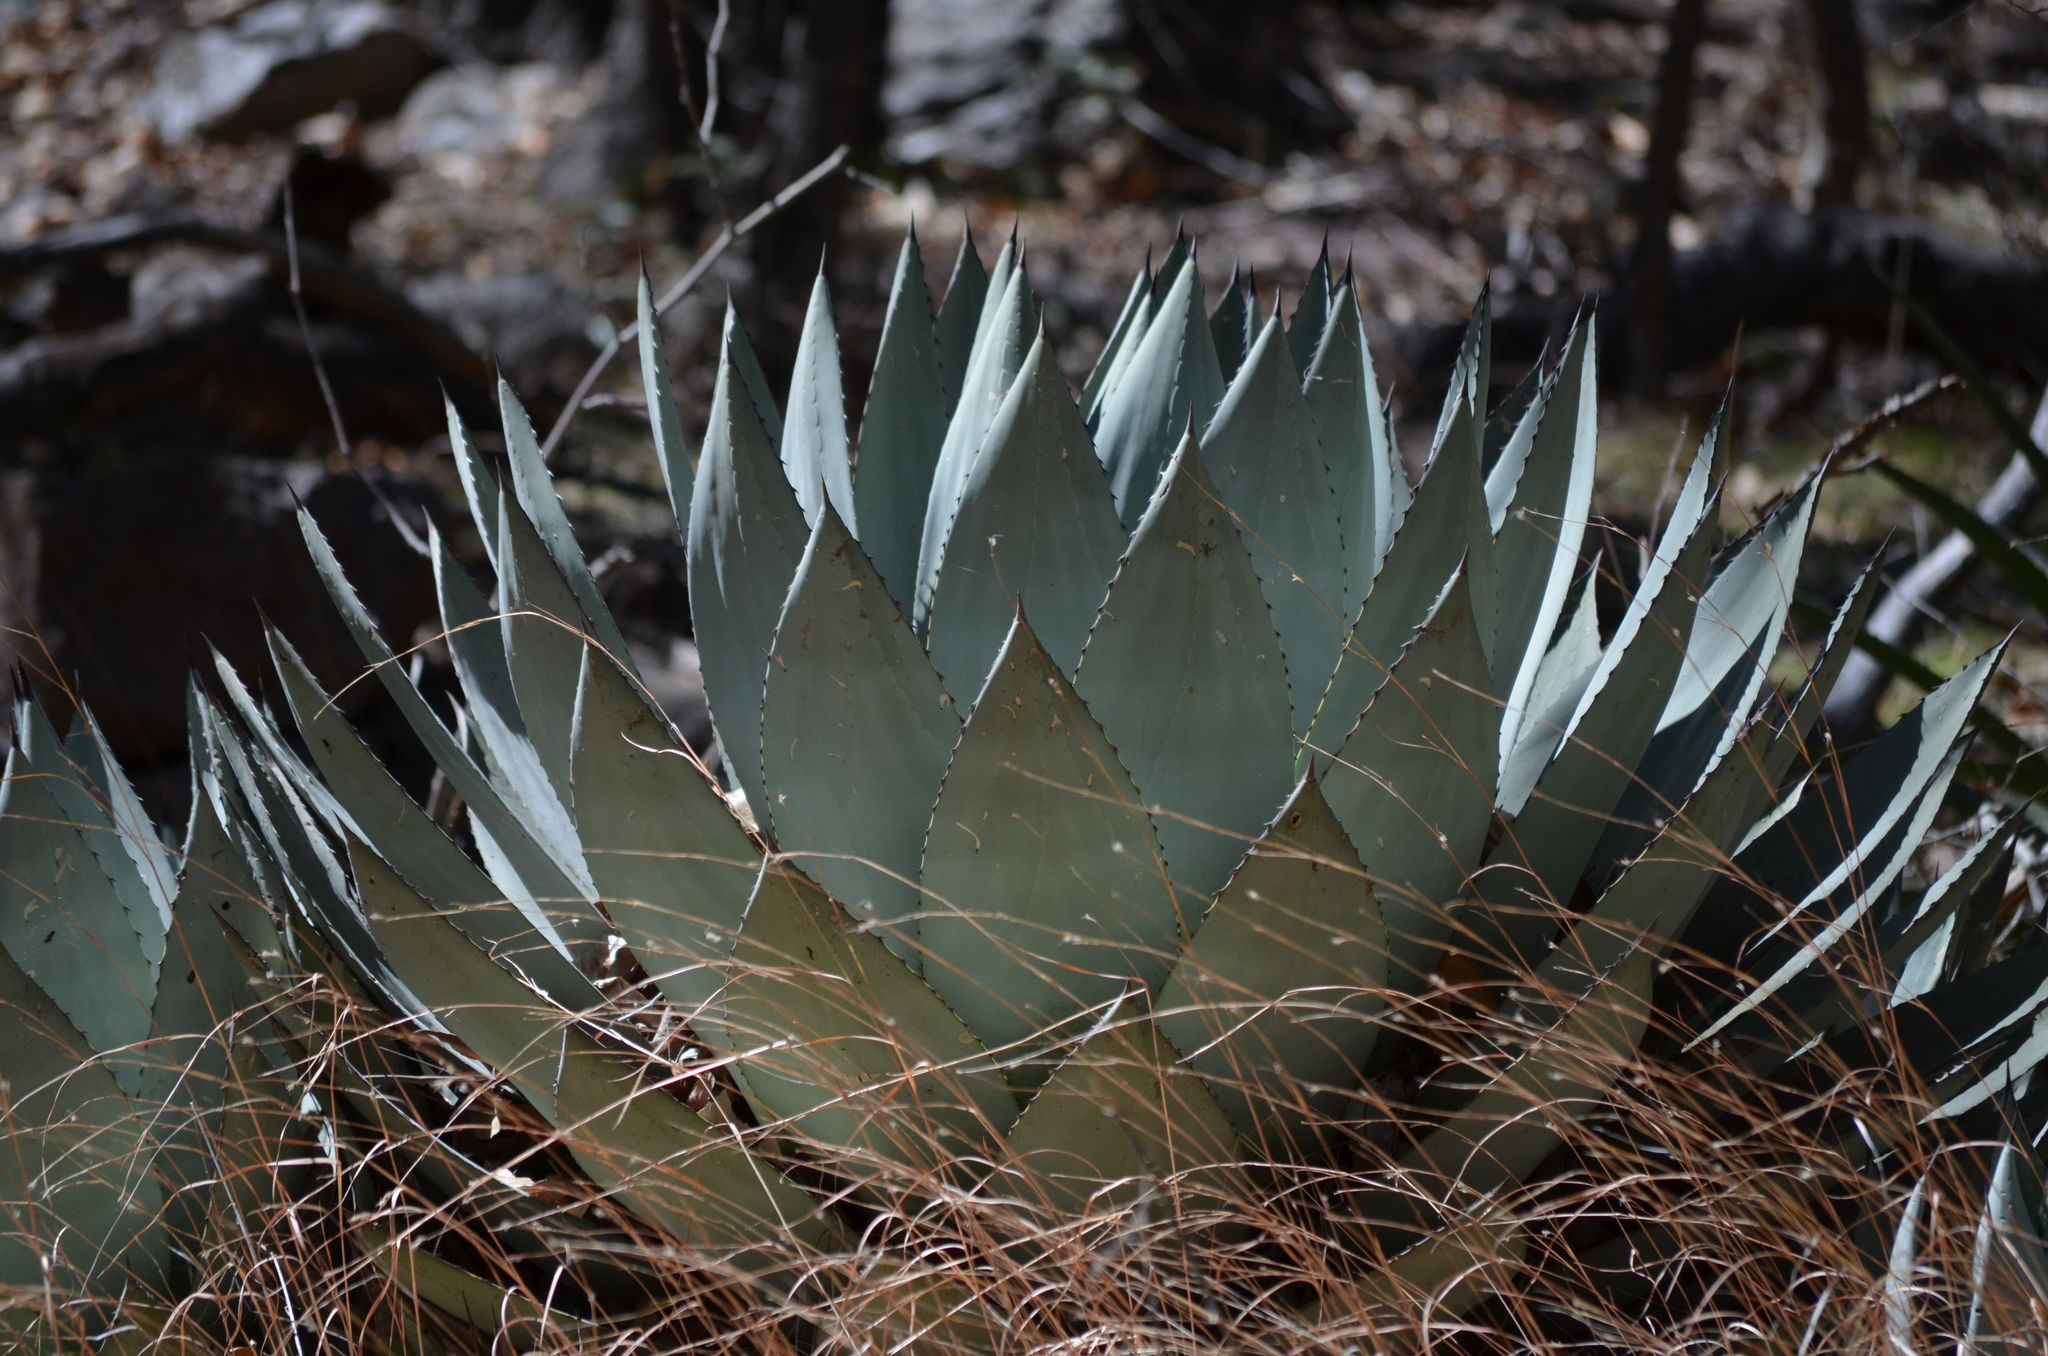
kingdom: Plantae
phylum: Tracheophyta
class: Liliopsida
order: Asparagales
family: Asparagaceae
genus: Agave
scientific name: Agave parryi
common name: Parry's agave
